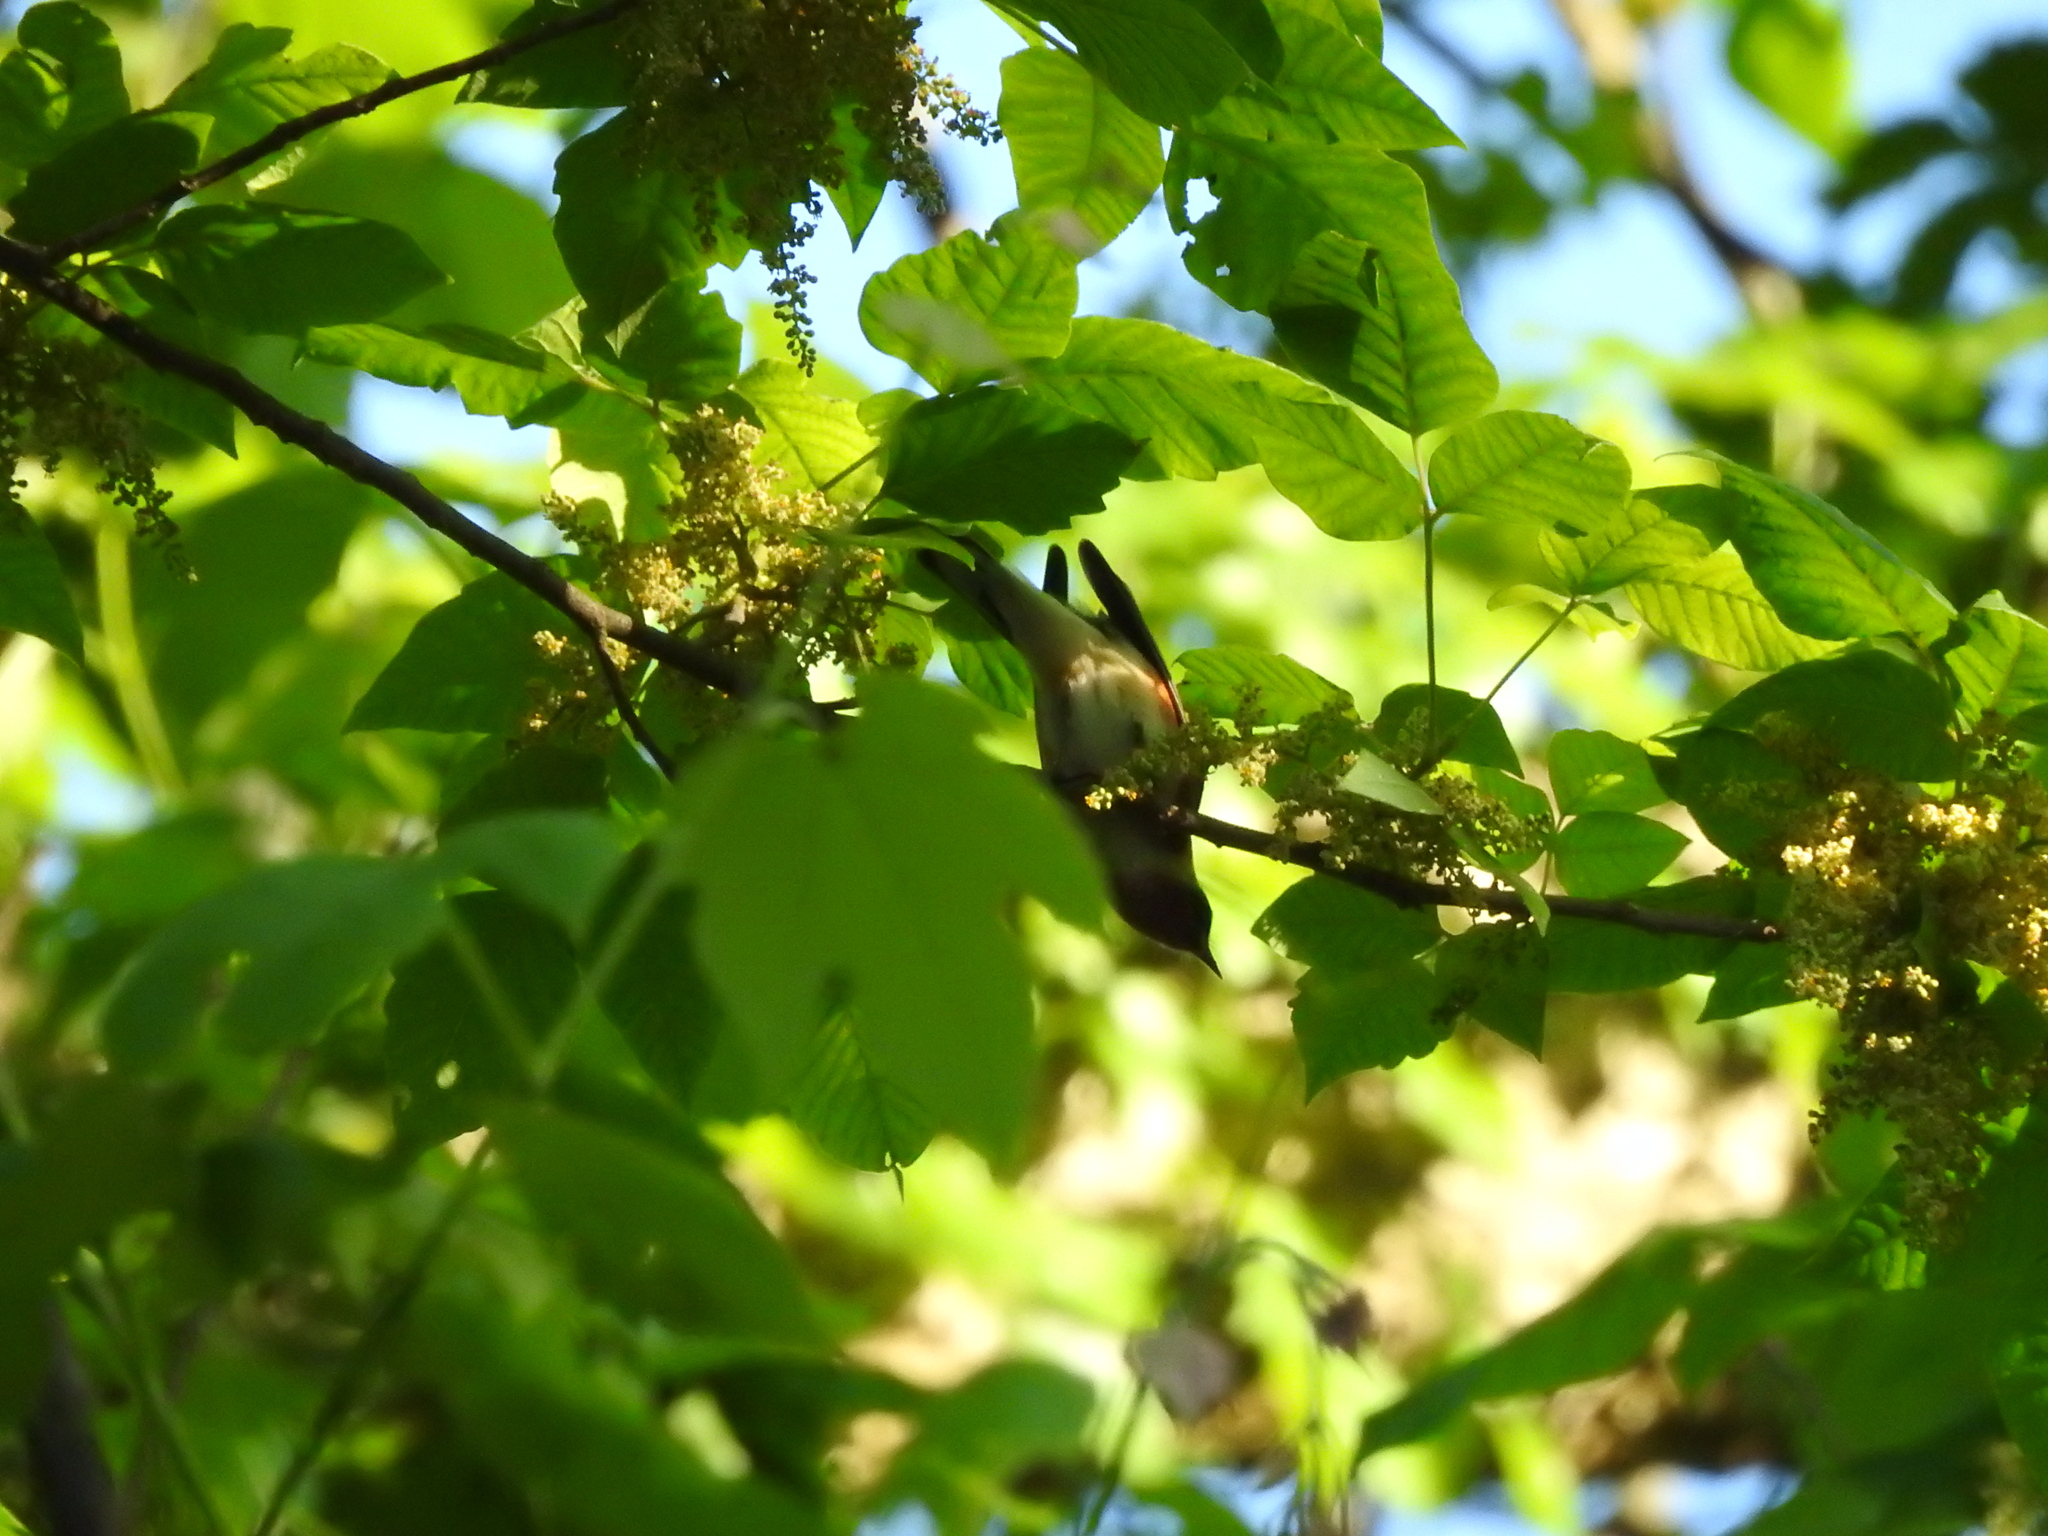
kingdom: Animalia
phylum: Chordata
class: Aves
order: Passeriformes
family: Parulidae
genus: Setophaga
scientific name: Setophaga castanea
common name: Bay-breasted warbler
